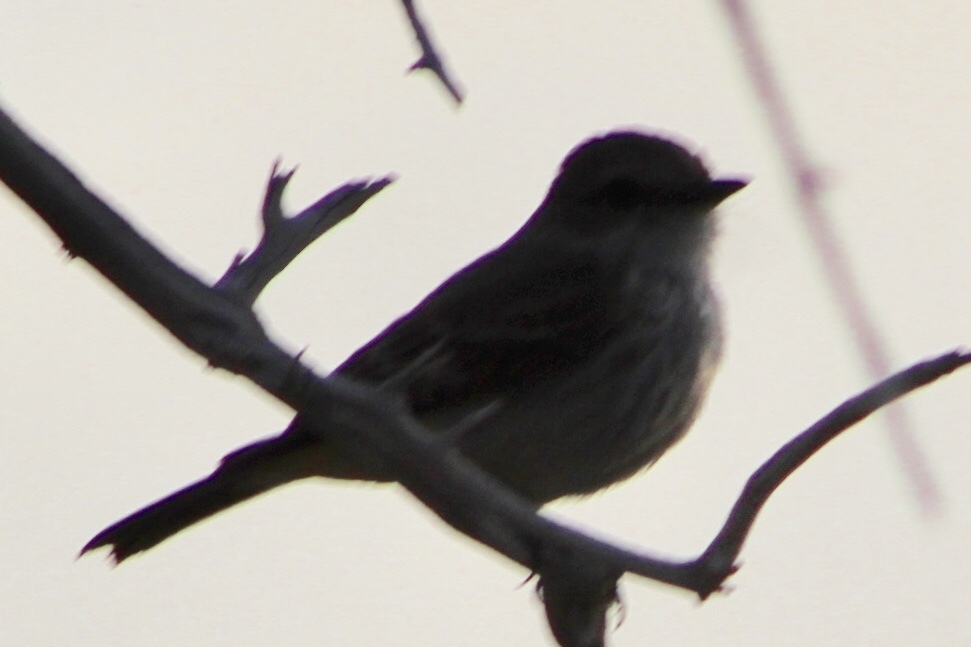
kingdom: Animalia
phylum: Chordata
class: Aves
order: Passeriformes
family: Tyrannidae
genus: Pyrocephalus
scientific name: Pyrocephalus rubinus
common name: Vermilion flycatcher
